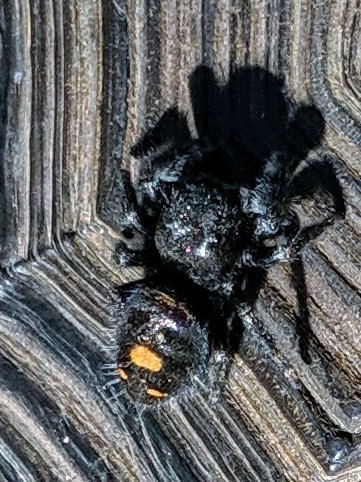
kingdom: Animalia
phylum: Arthropoda
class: Arachnida
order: Araneae
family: Salticidae
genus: Phidippus
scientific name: Phidippus audax
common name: Bold jumper
